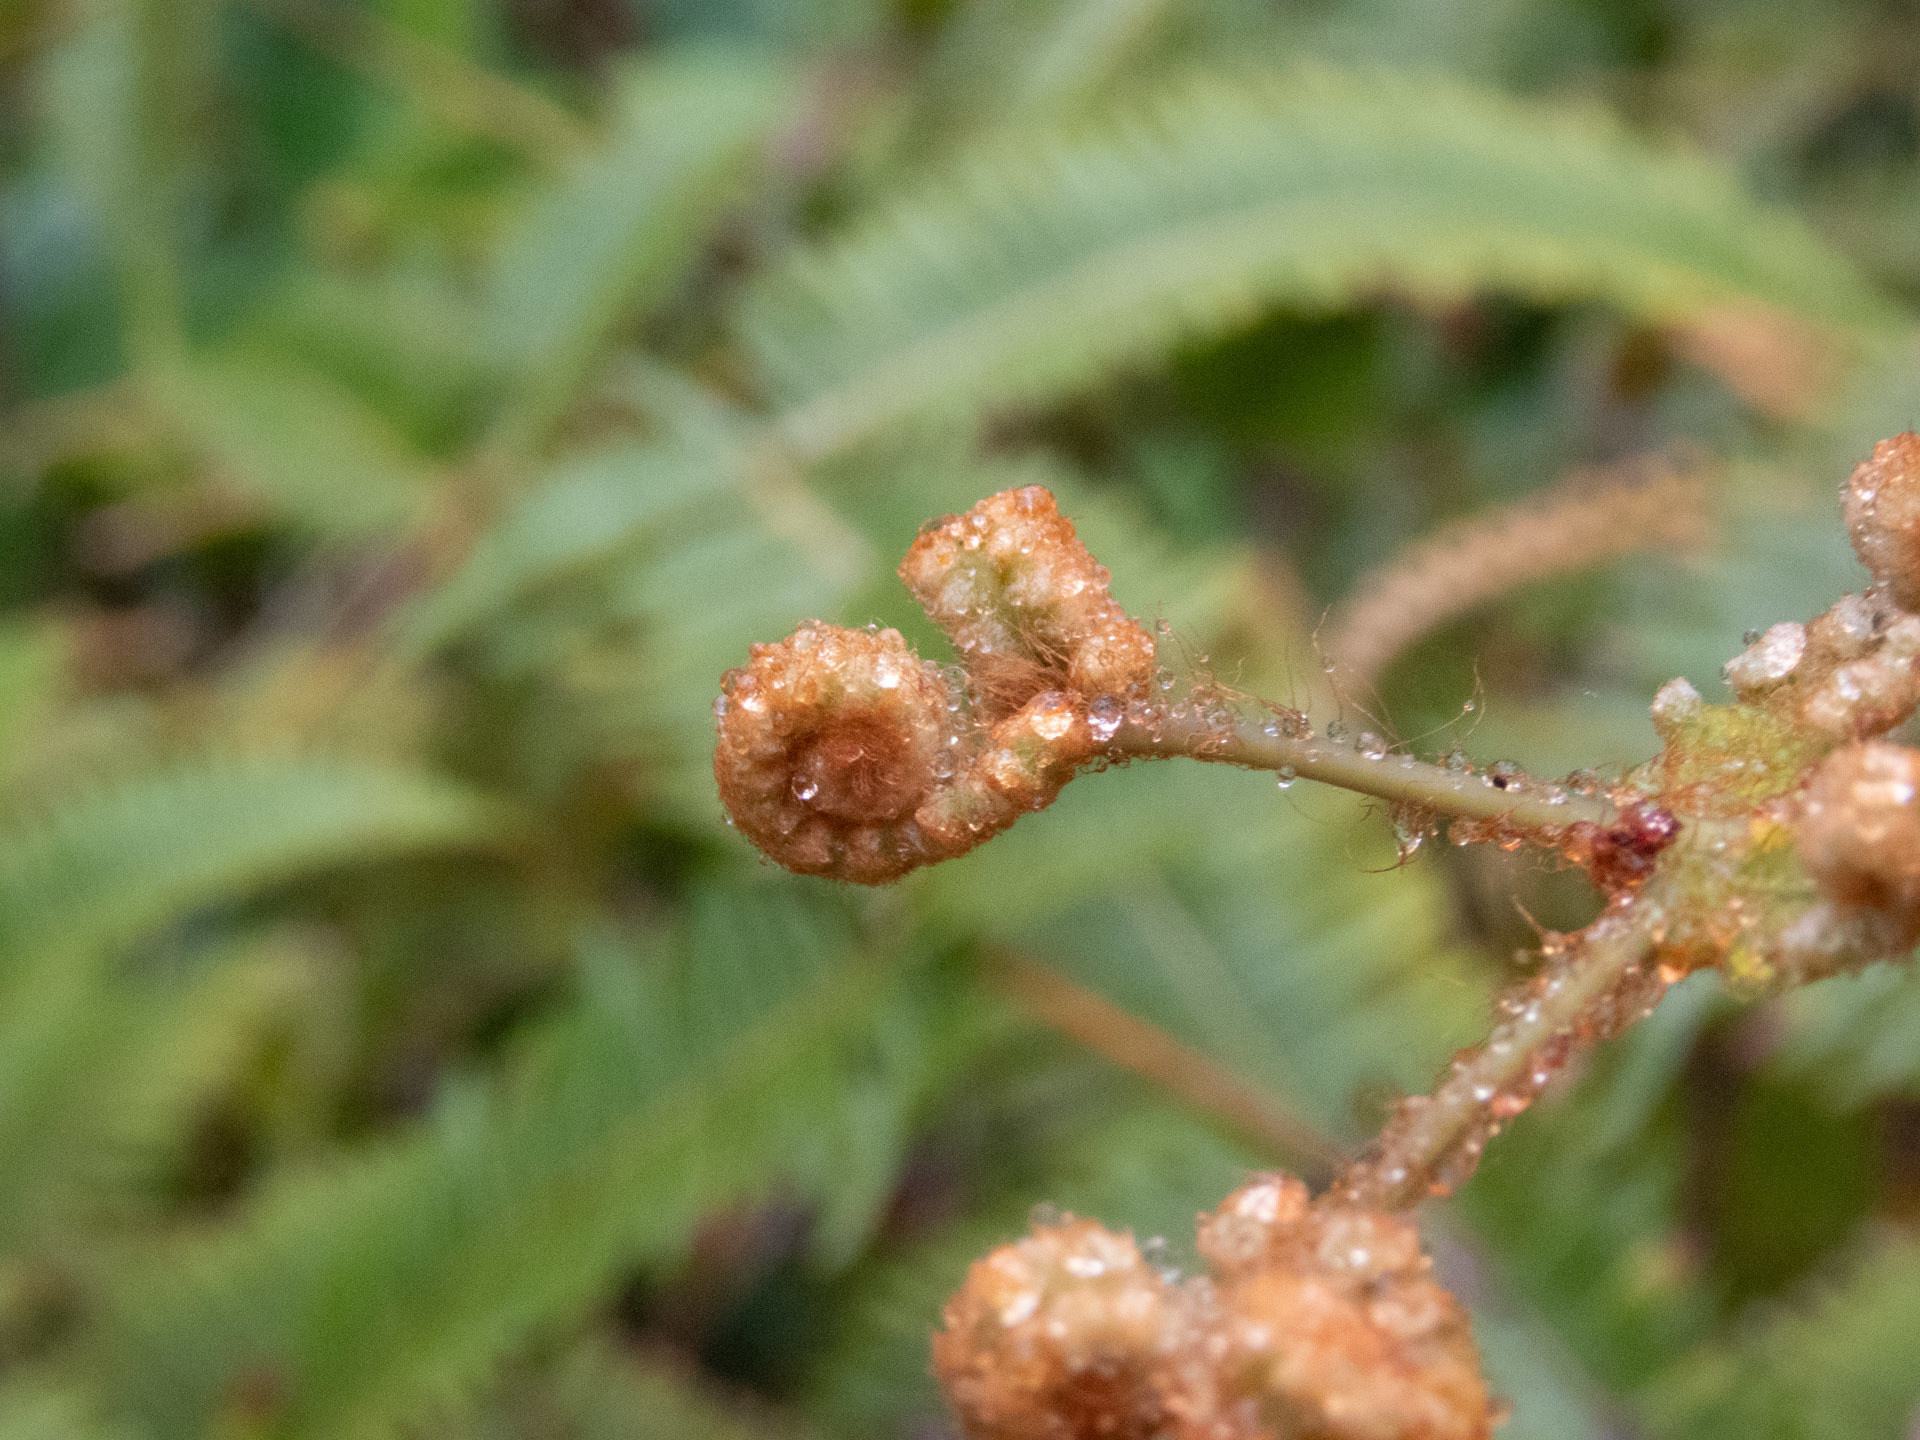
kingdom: Plantae
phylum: Tracheophyta
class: Polypodiopsida
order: Gleicheniales
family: Gleicheniaceae
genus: Dicranopteris
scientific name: Dicranopteris linearis
